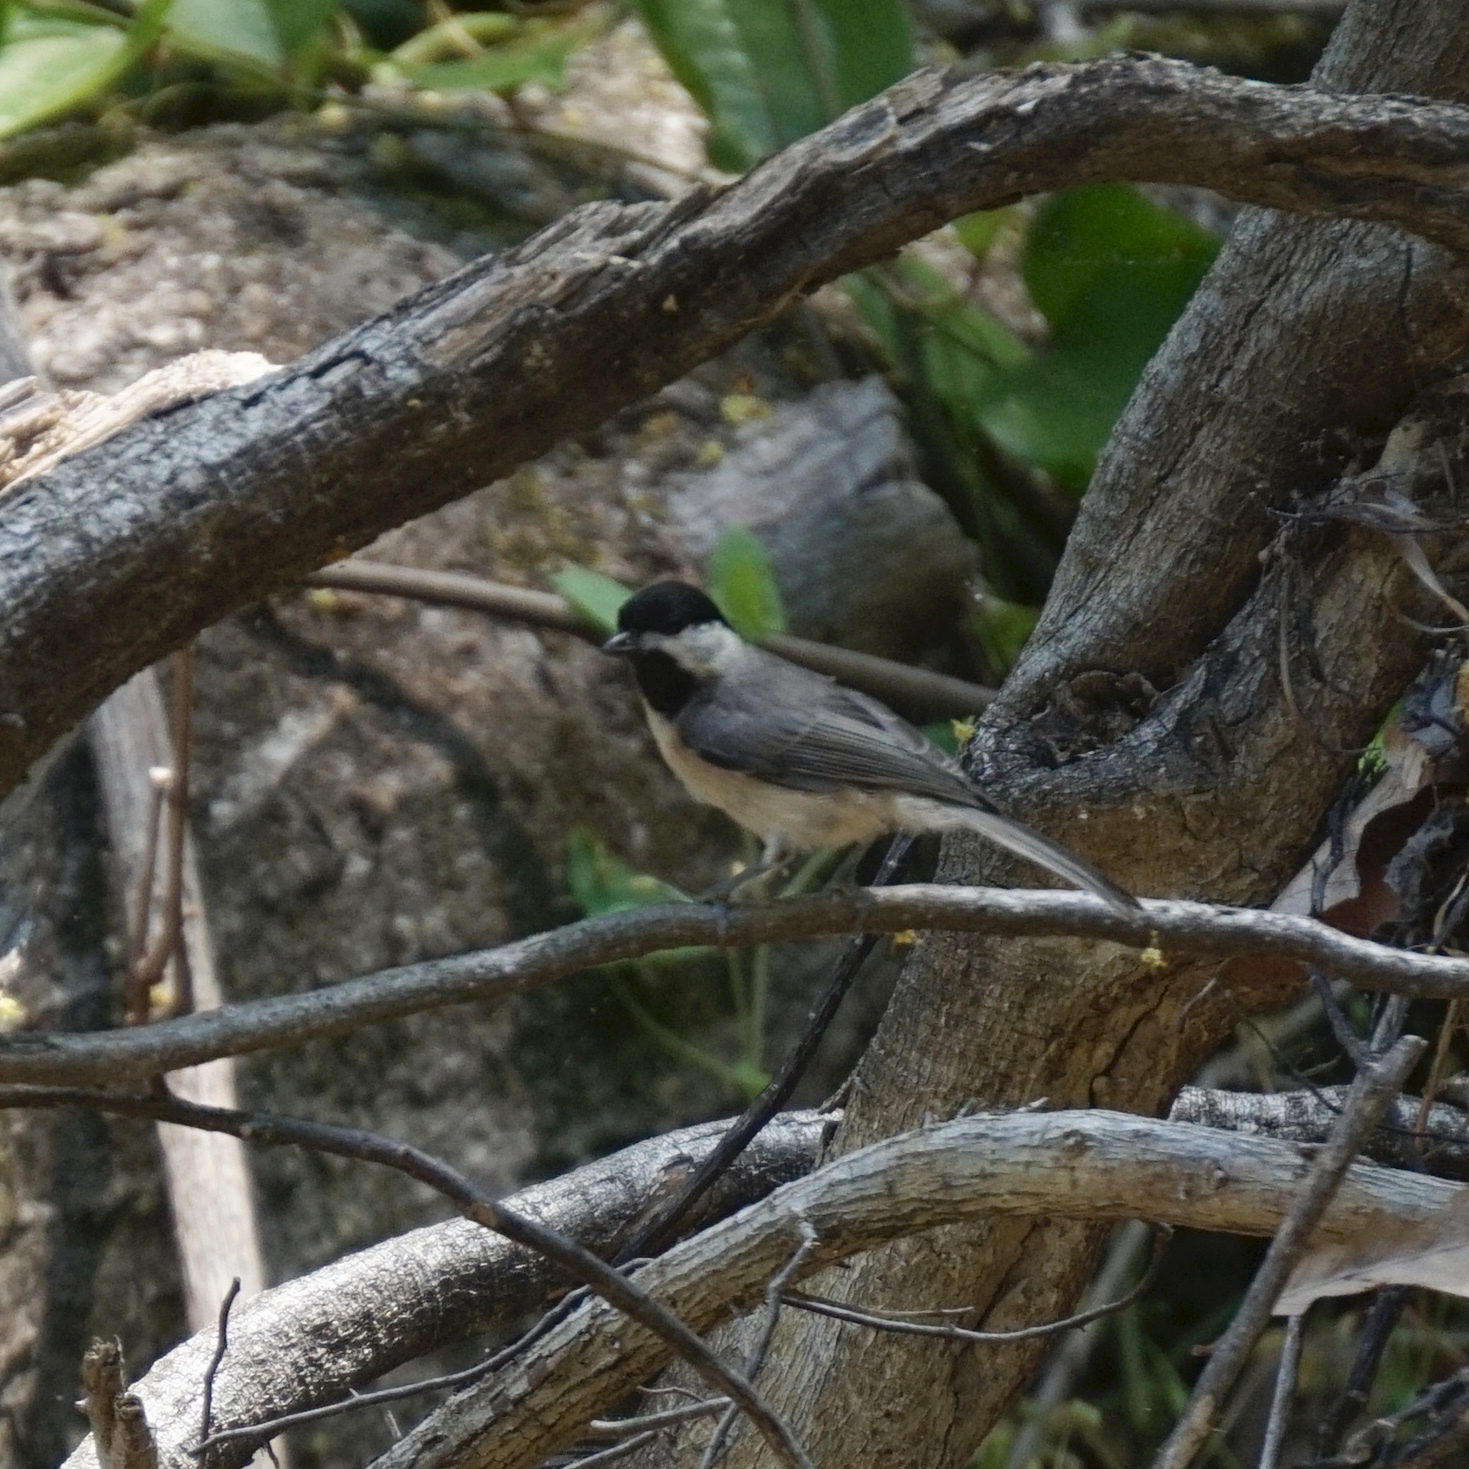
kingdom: Animalia
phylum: Chordata
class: Aves
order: Passeriformes
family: Paridae
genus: Poecile
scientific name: Poecile carolinensis
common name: Carolina chickadee
